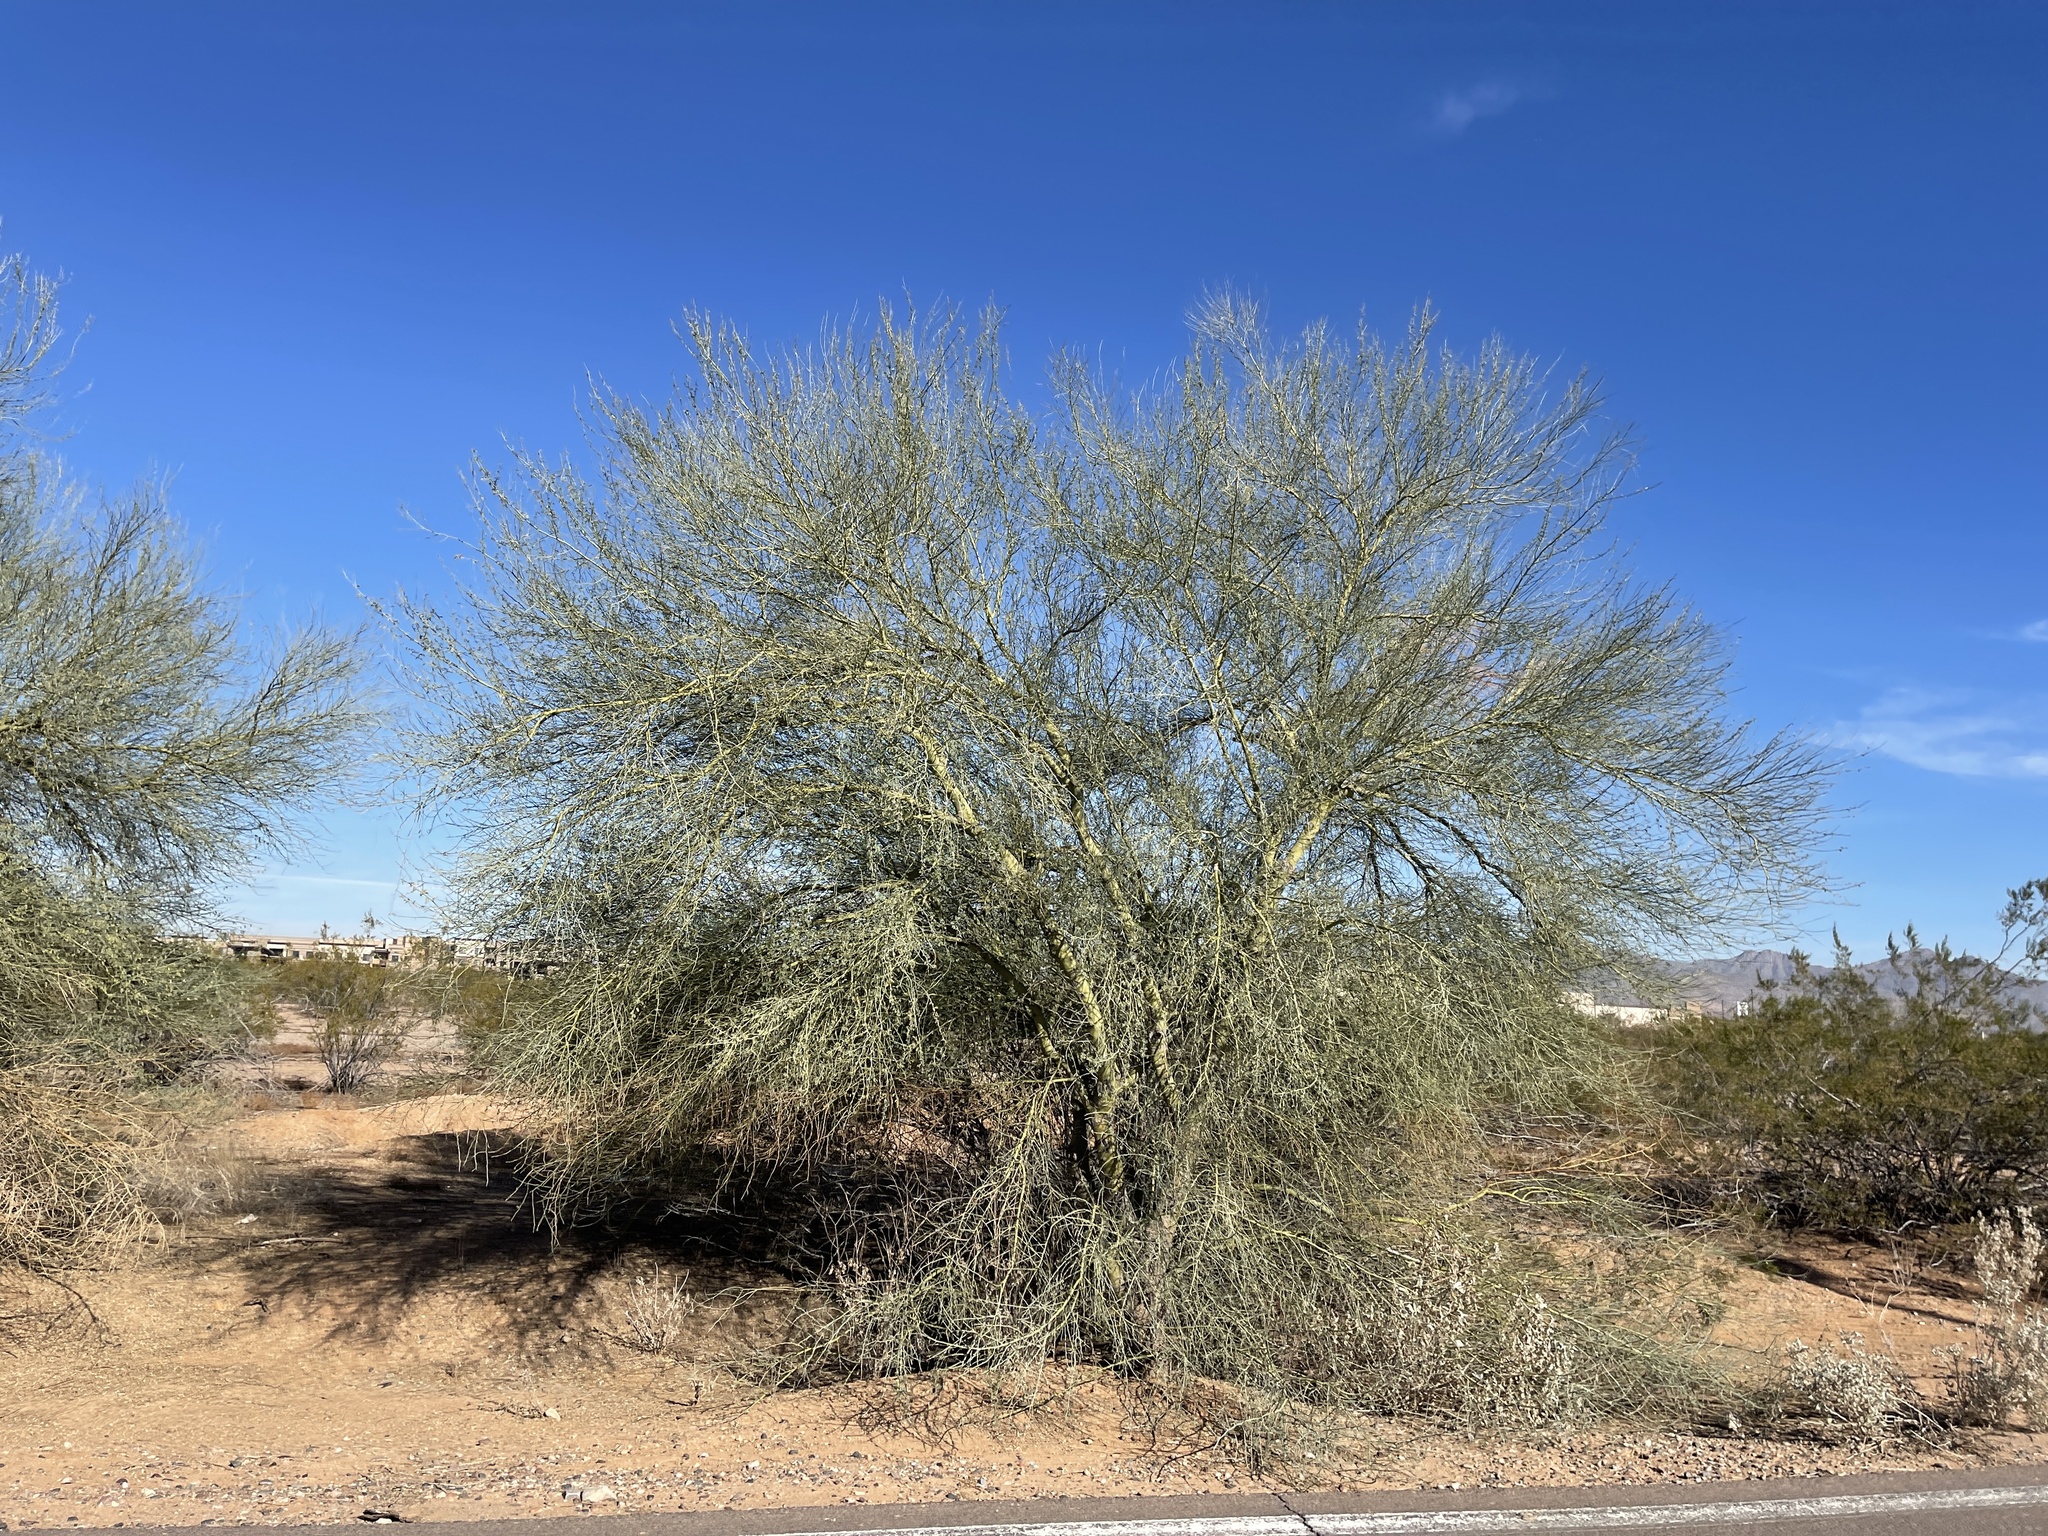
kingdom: Plantae
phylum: Tracheophyta
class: Magnoliopsida
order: Fabales
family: Fabaceae
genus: Parkinsonia
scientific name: Parkinsonia microphylla
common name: Yellow paloverde
